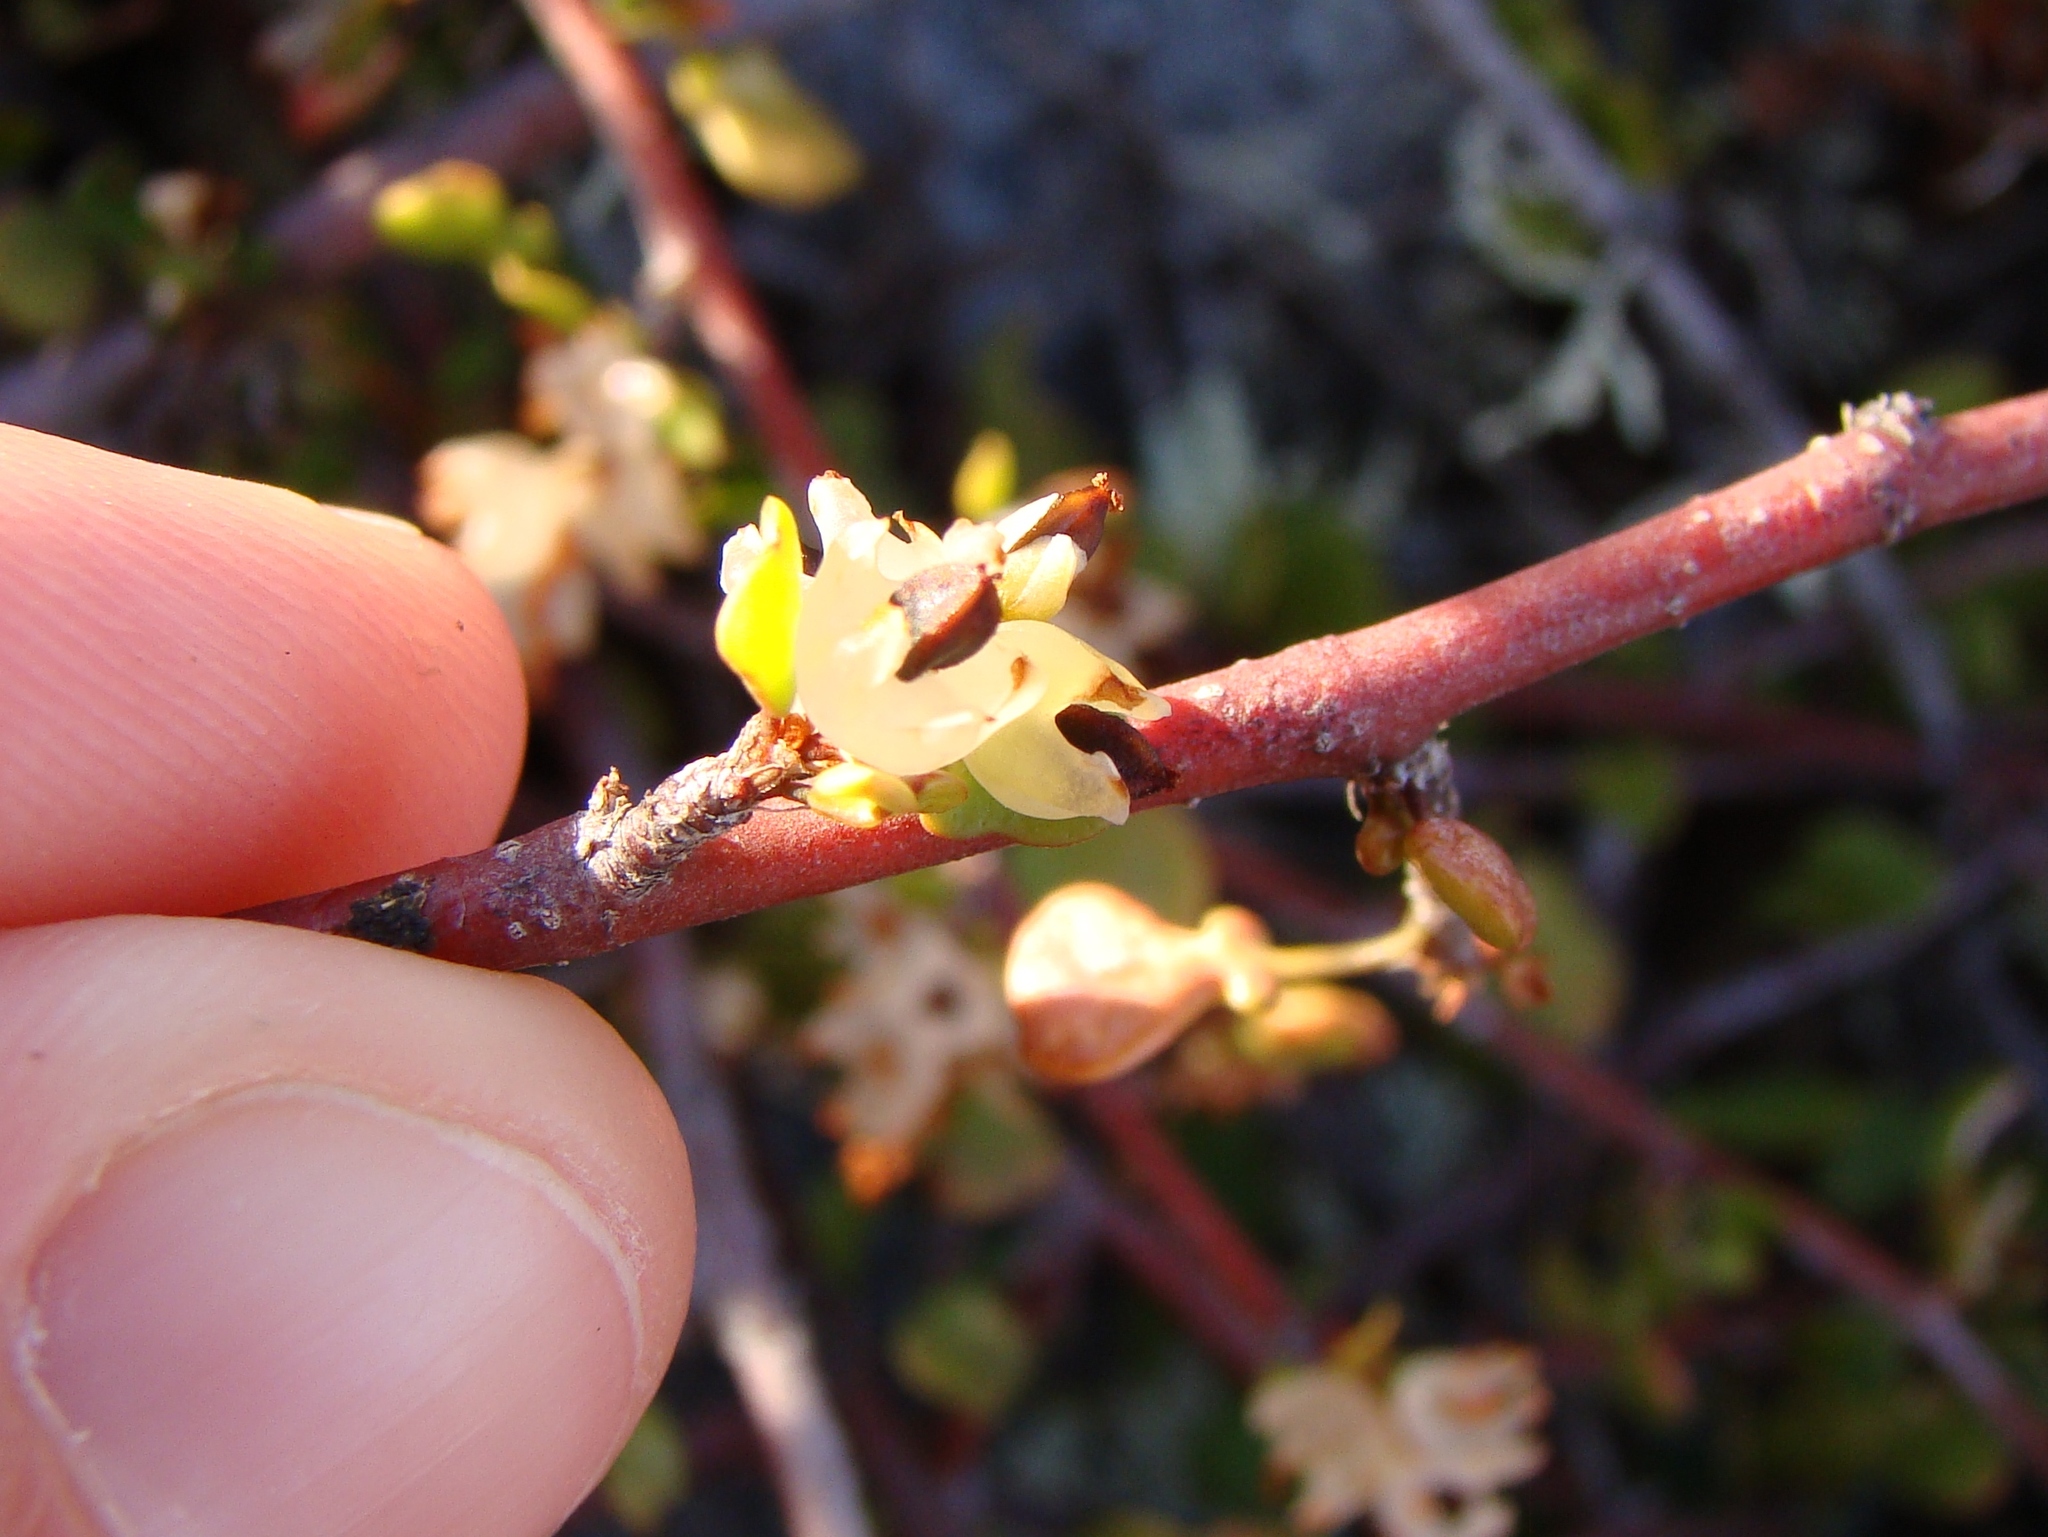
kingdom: Plantae
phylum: Tracheophyta
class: Magnoliopsida
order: Caryophyllales
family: Polygonaceae
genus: Muehlenbeckia
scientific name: Muehlenbeckia complexa
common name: Wireplant
